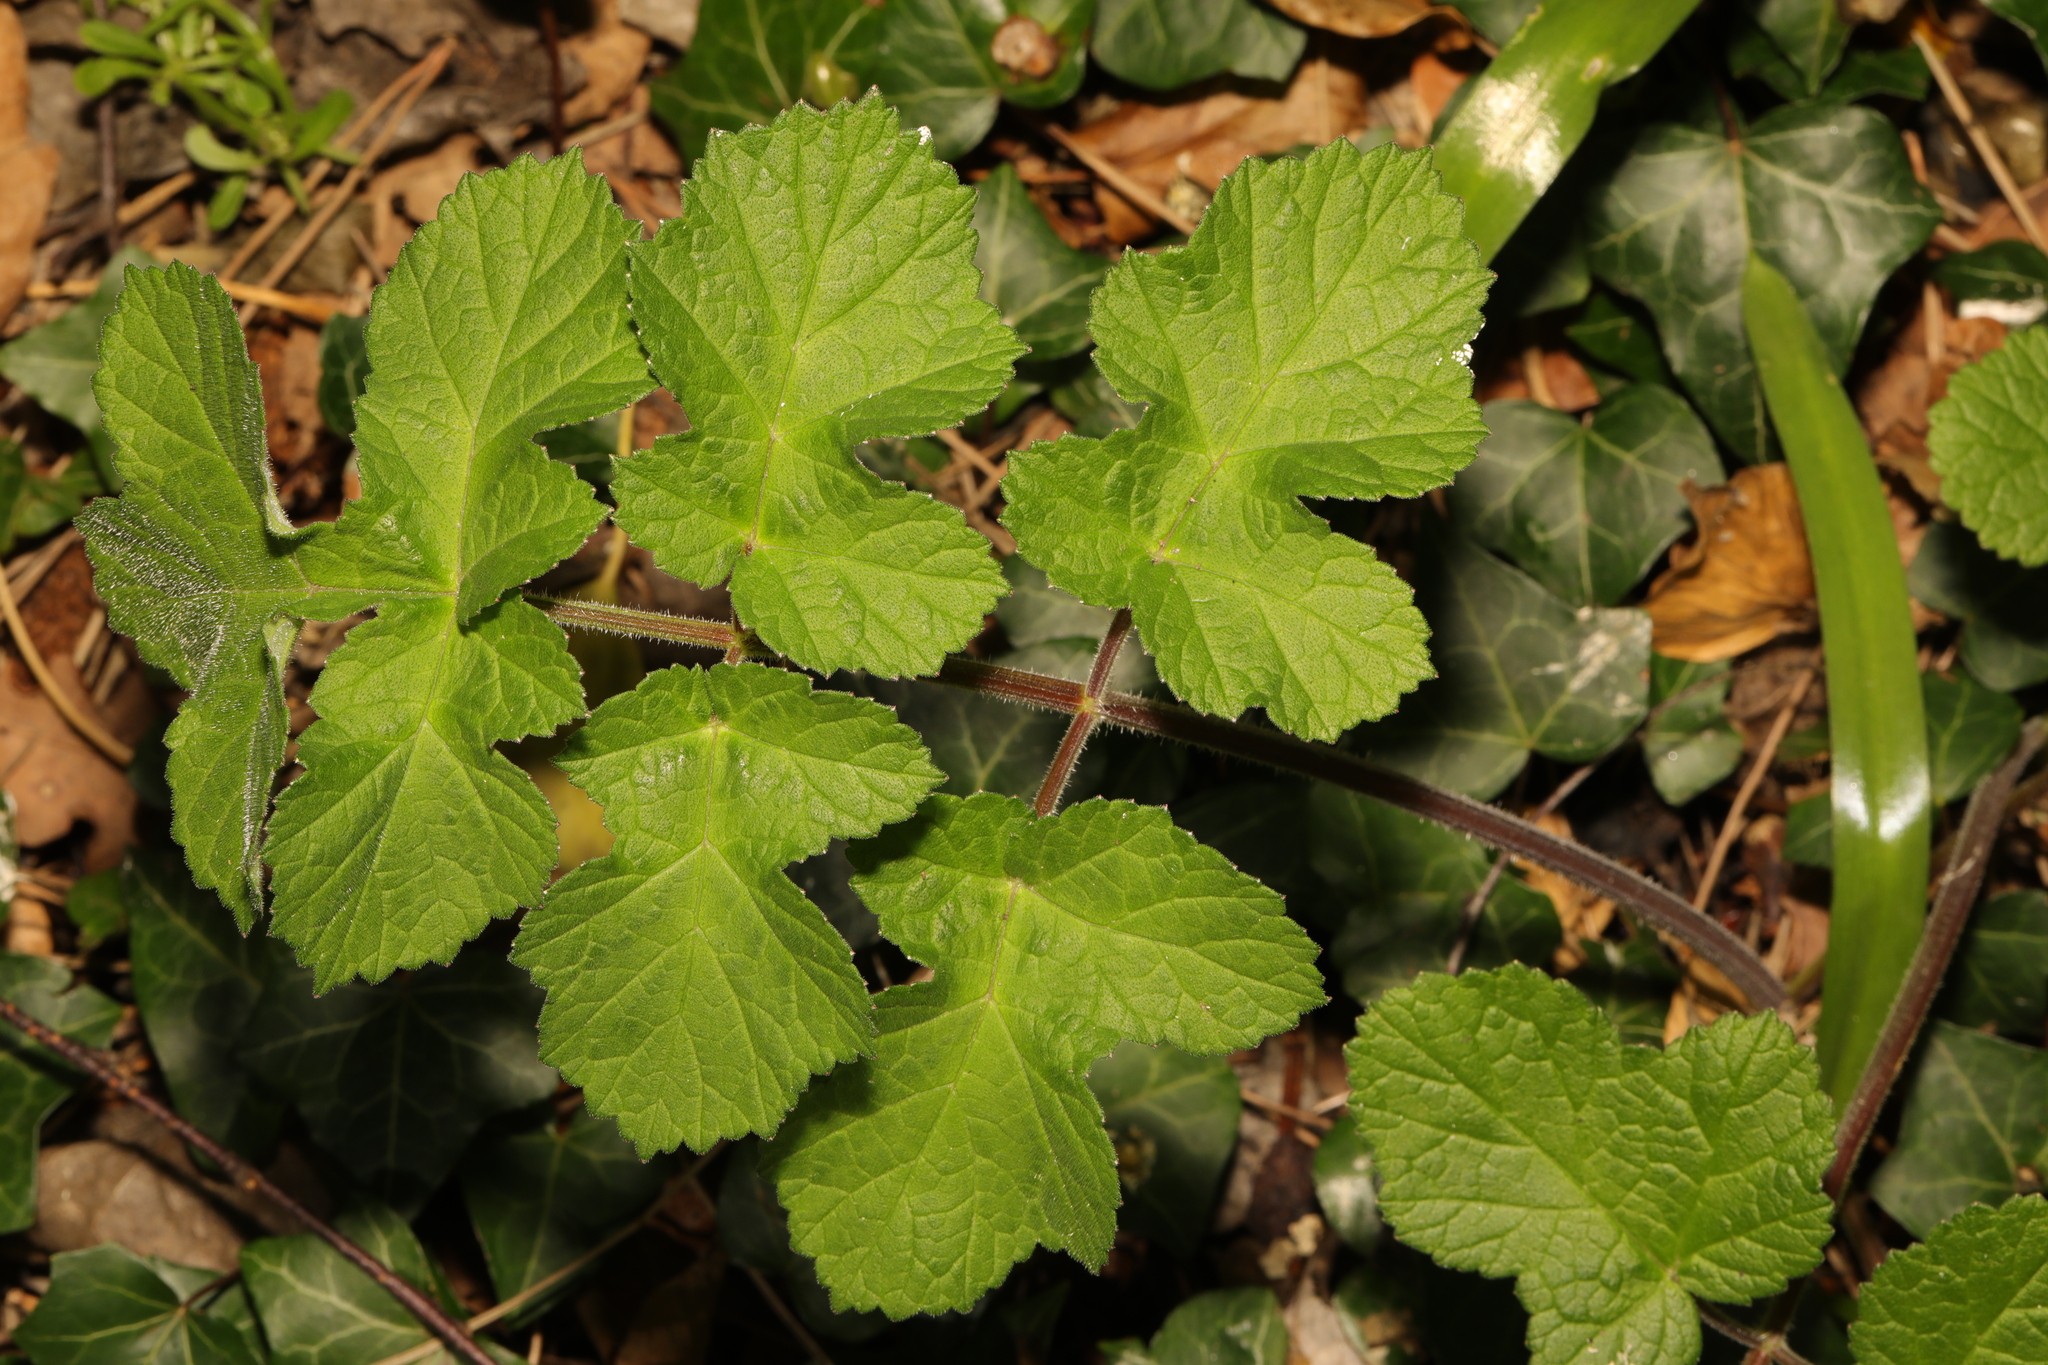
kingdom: Plantae
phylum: Tracheophyta
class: Magnoliopsida
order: Apiales
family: Apiaceae
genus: Heracleum
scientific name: Heracleum sphondylium
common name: Hogweed
